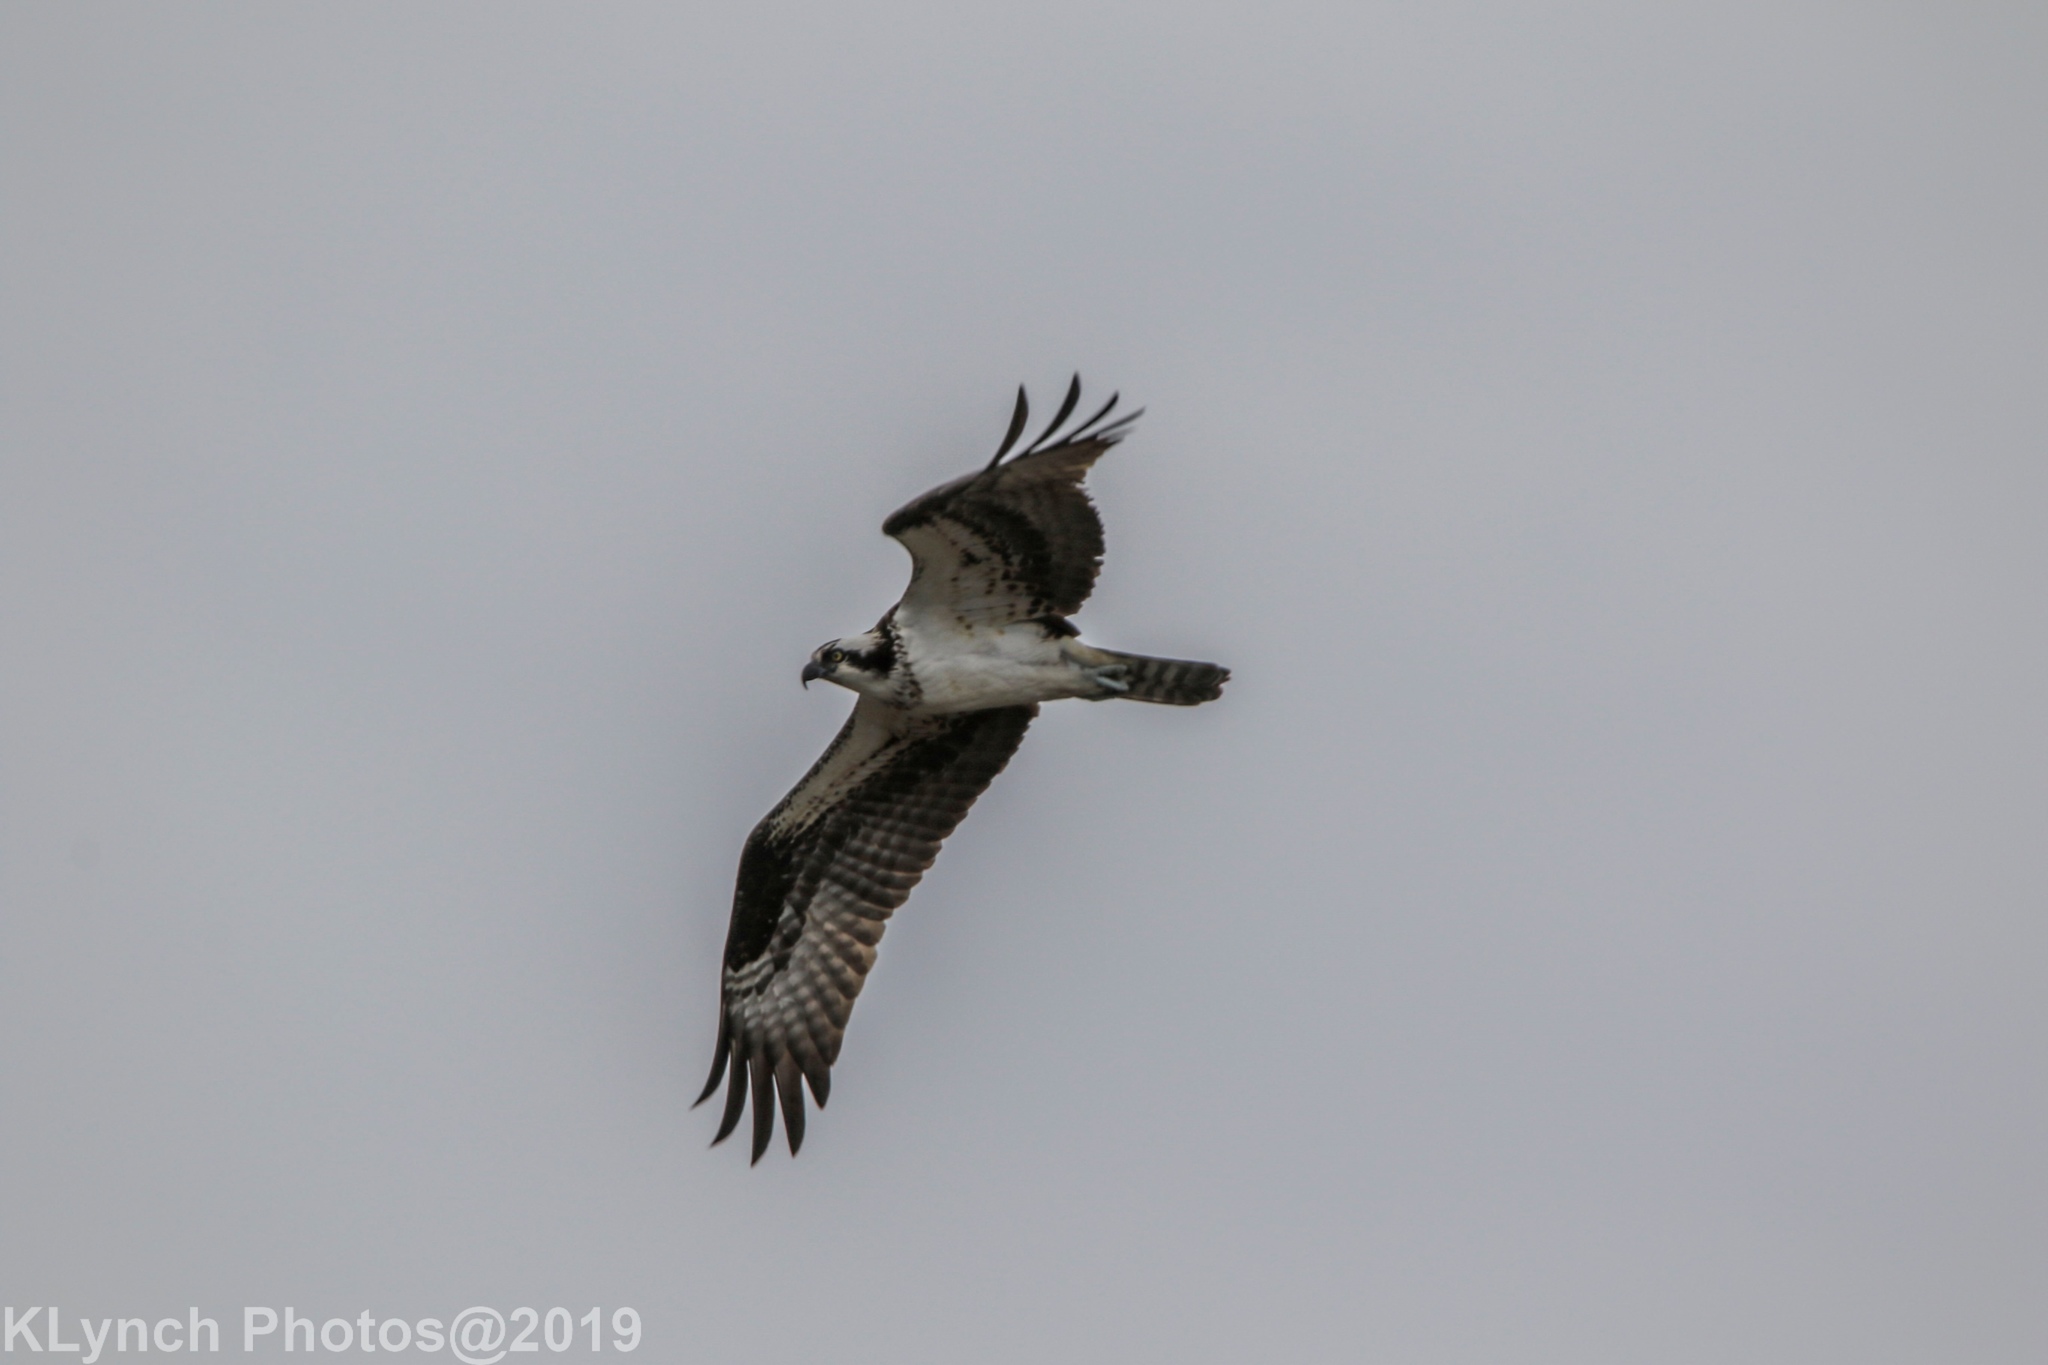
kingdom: Animalia
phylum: Chordata
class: Aves
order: Accipitriformes
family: Pandionidae
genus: Pandion
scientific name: Pandion haliaetus
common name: Osprey
